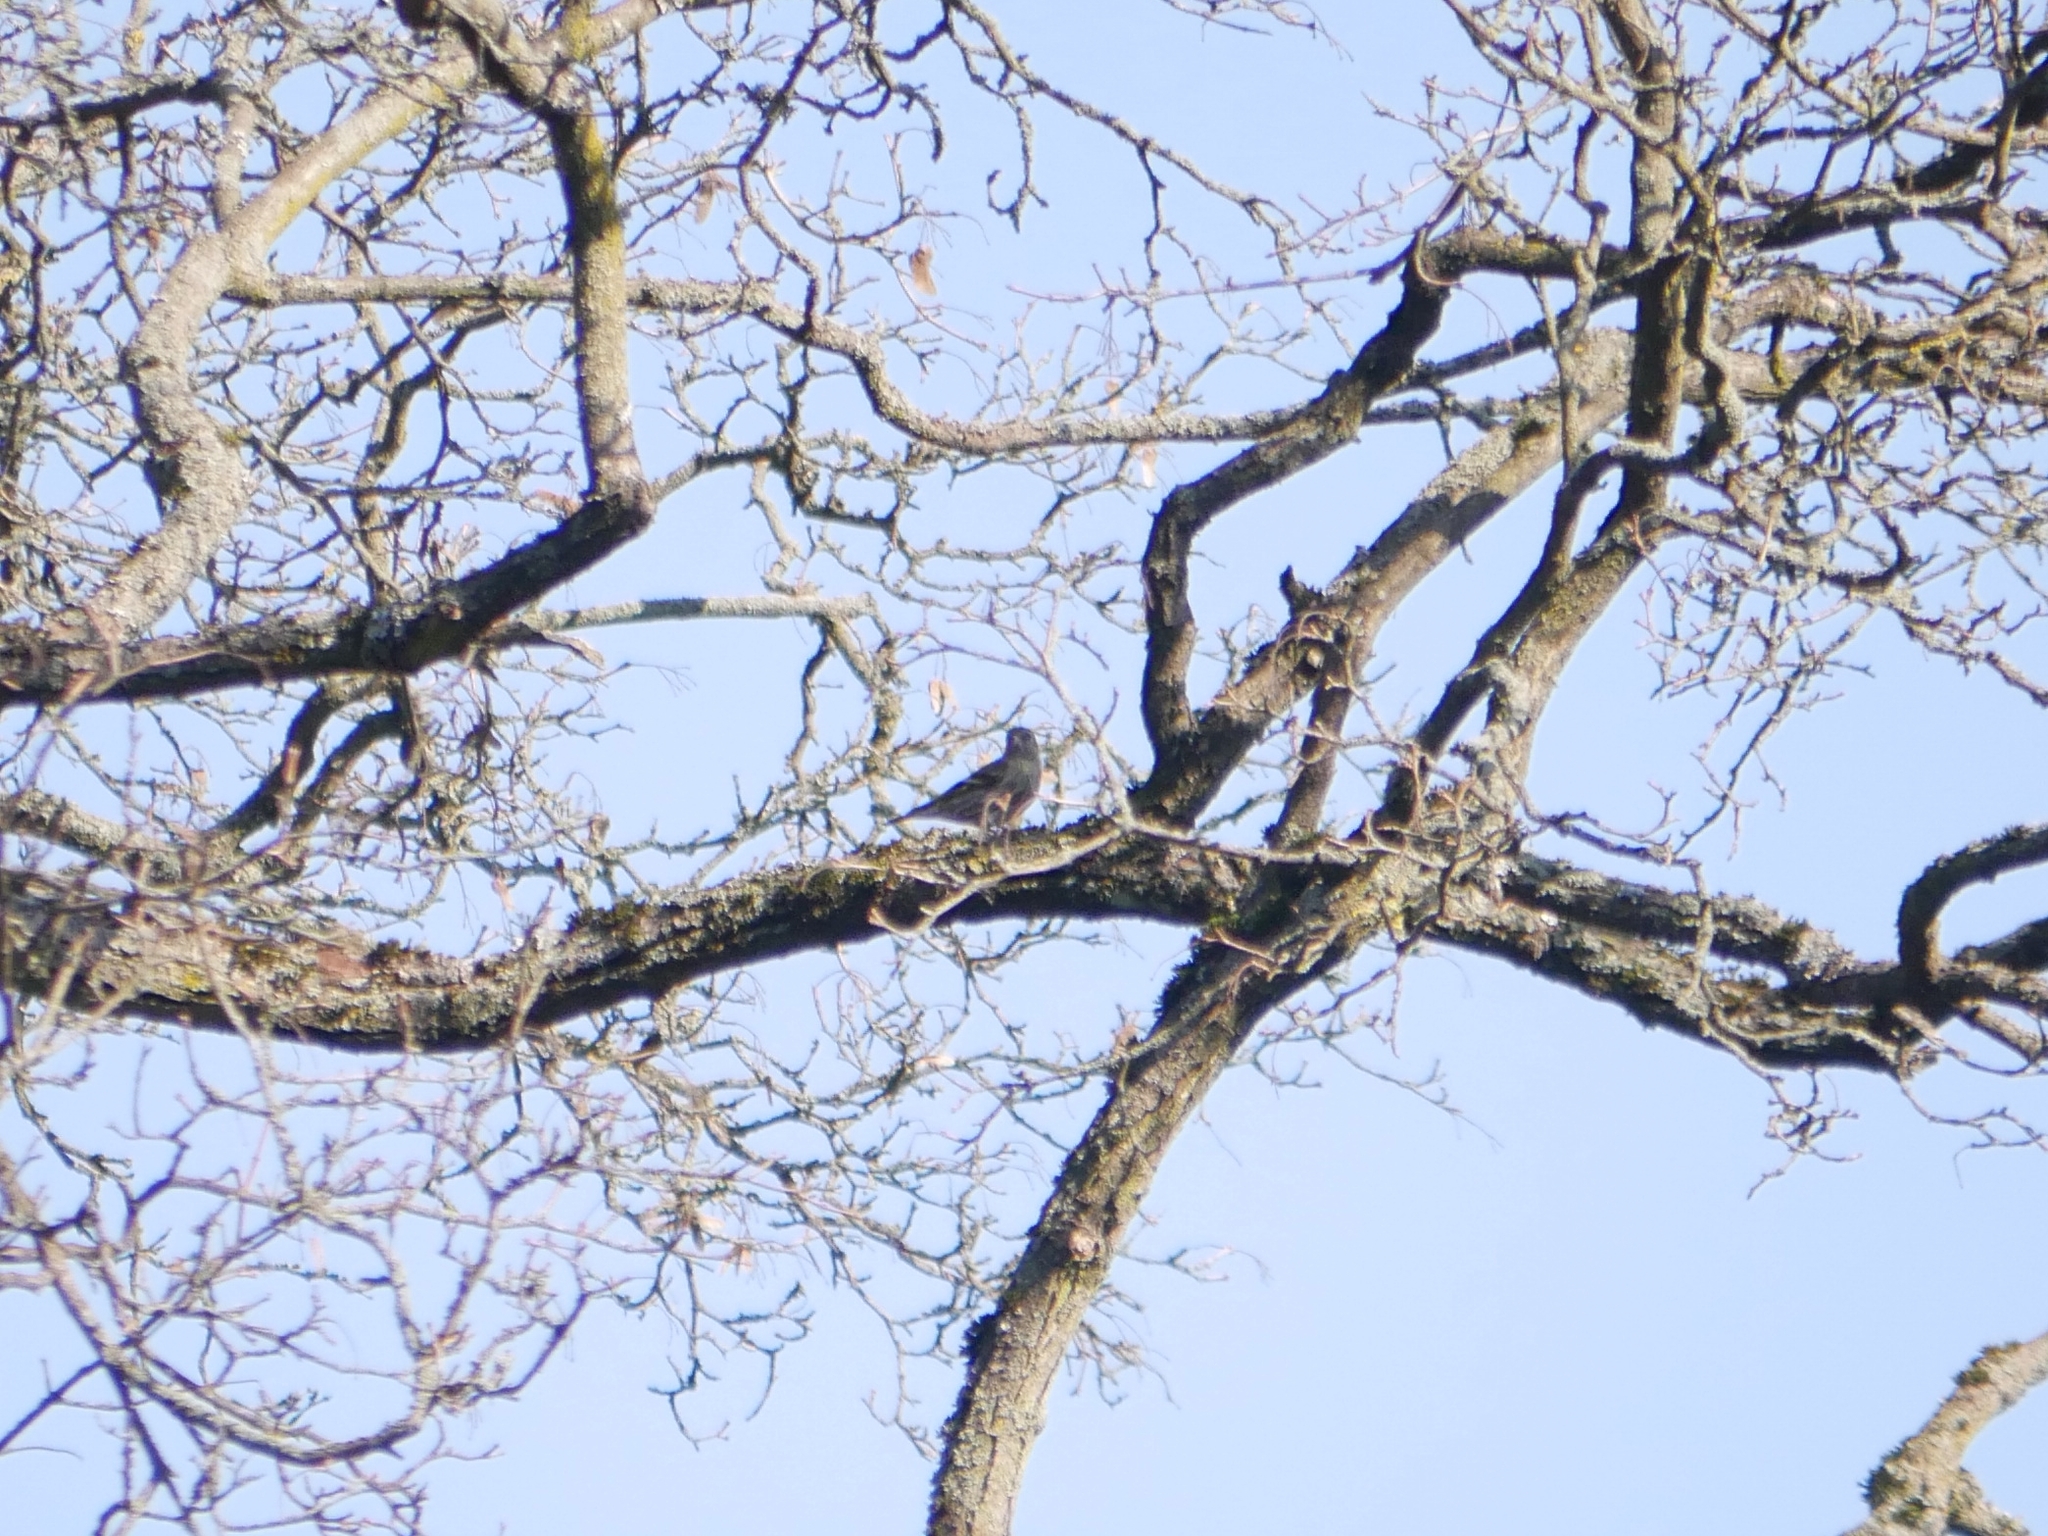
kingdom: Animalia
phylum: Chordata
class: Aves
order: Passeriformes
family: Fringillidae
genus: Spinus
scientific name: Spinus spinus
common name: Eurasian siskin
